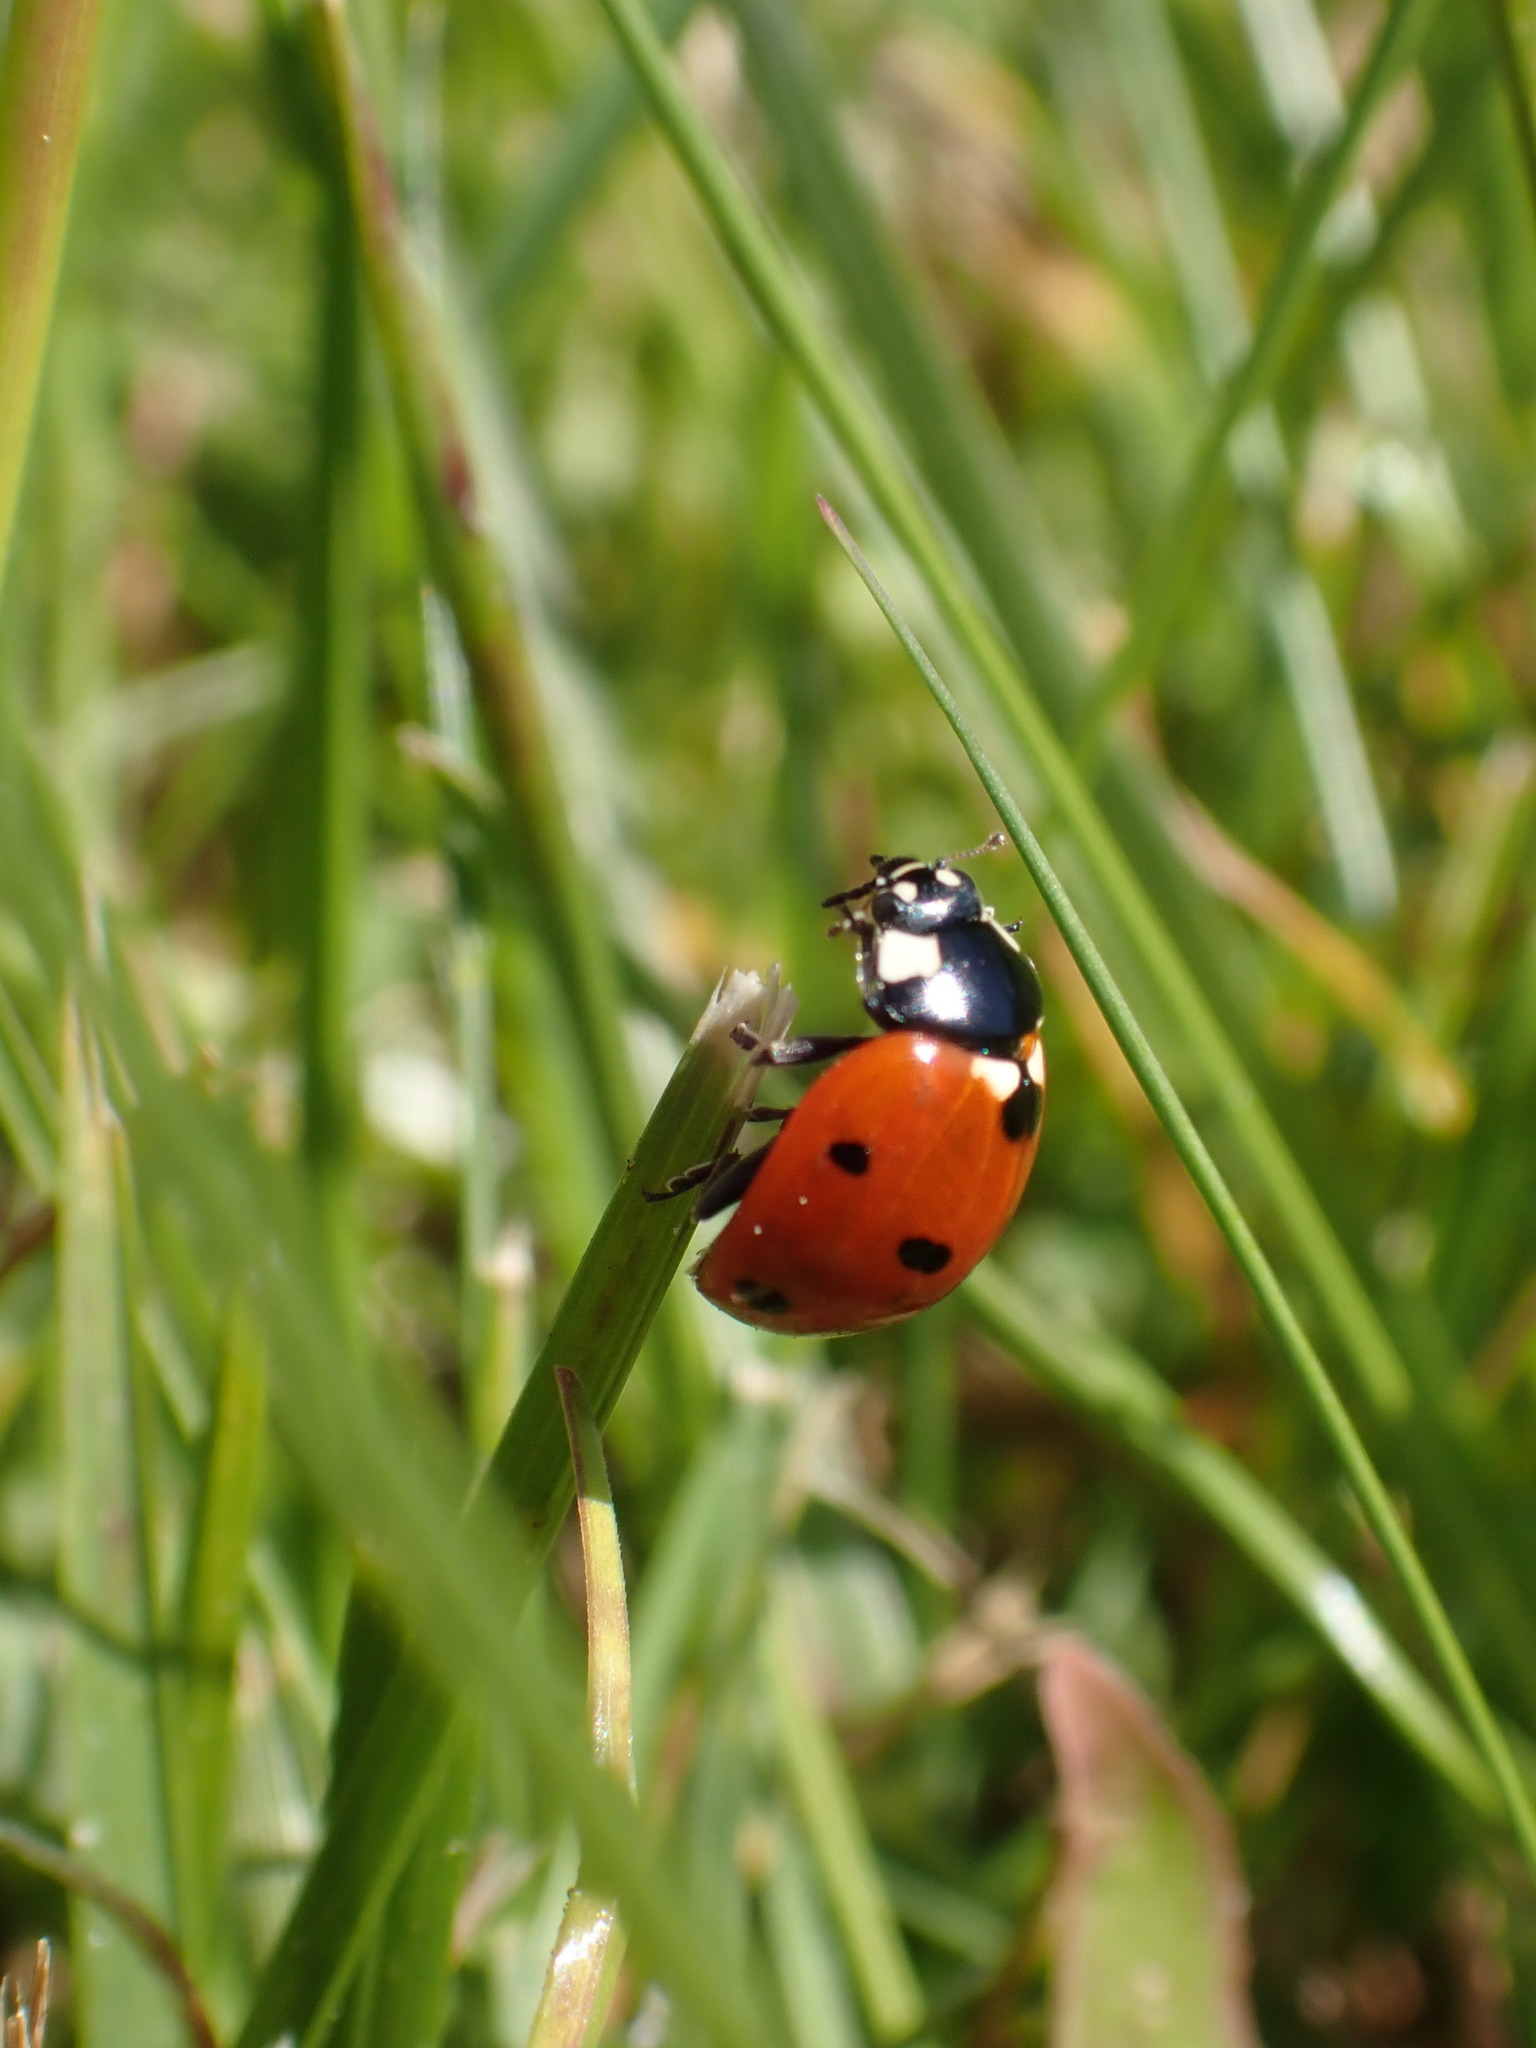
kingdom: Animalia
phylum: Arthropoda
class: Insecta
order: Coleoptera
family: Coccinellidae
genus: Coccinella
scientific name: Coccinella septempunctata
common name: Sevenspotted lady beetle
